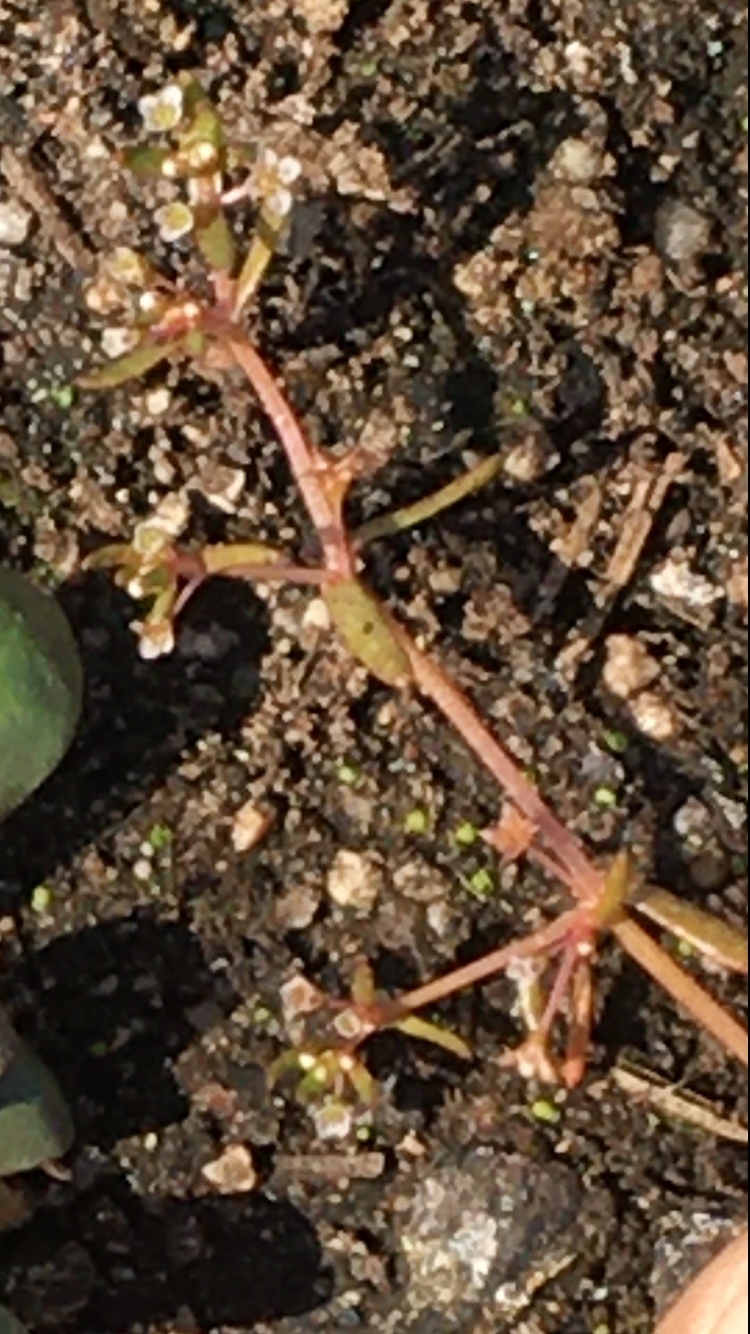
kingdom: Plantae
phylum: Tracheophyta
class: Magnoliopsida
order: Saxifragales
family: Crassulaceae
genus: Crassula
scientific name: Crassula natans
